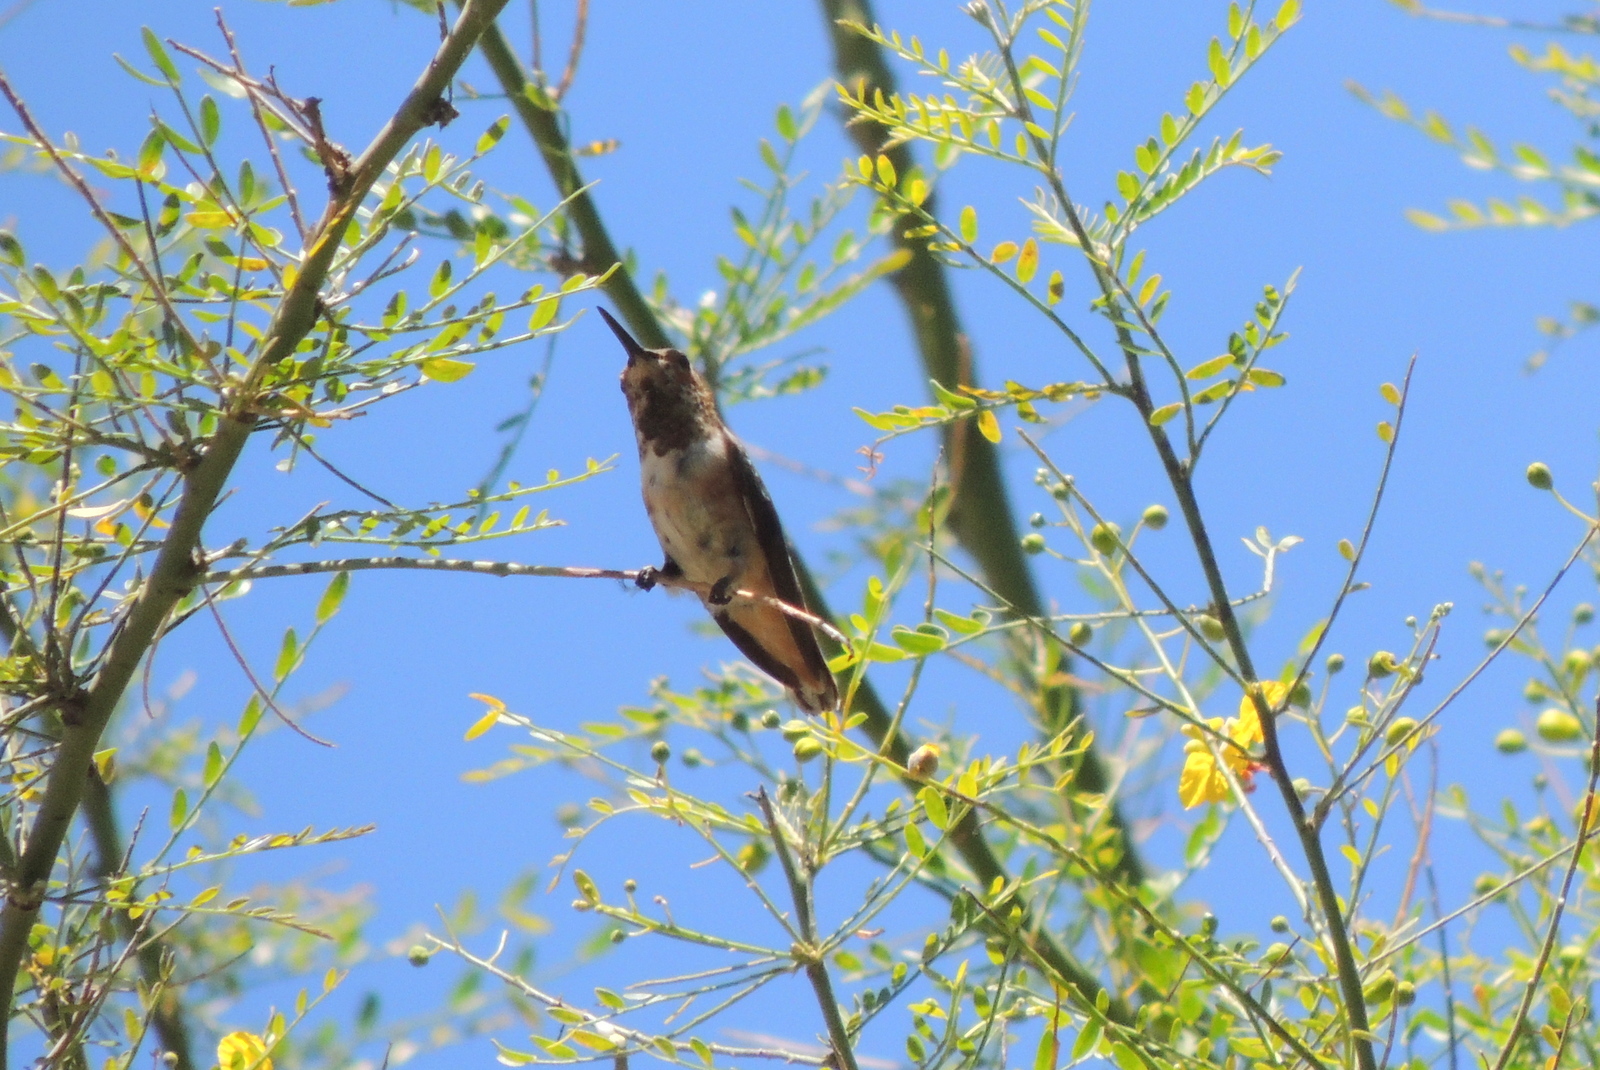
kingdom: Animalia
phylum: Chordata
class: Aves
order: Apodiformes
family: Trochilidae
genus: Selasphorus
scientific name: Selasphorus
